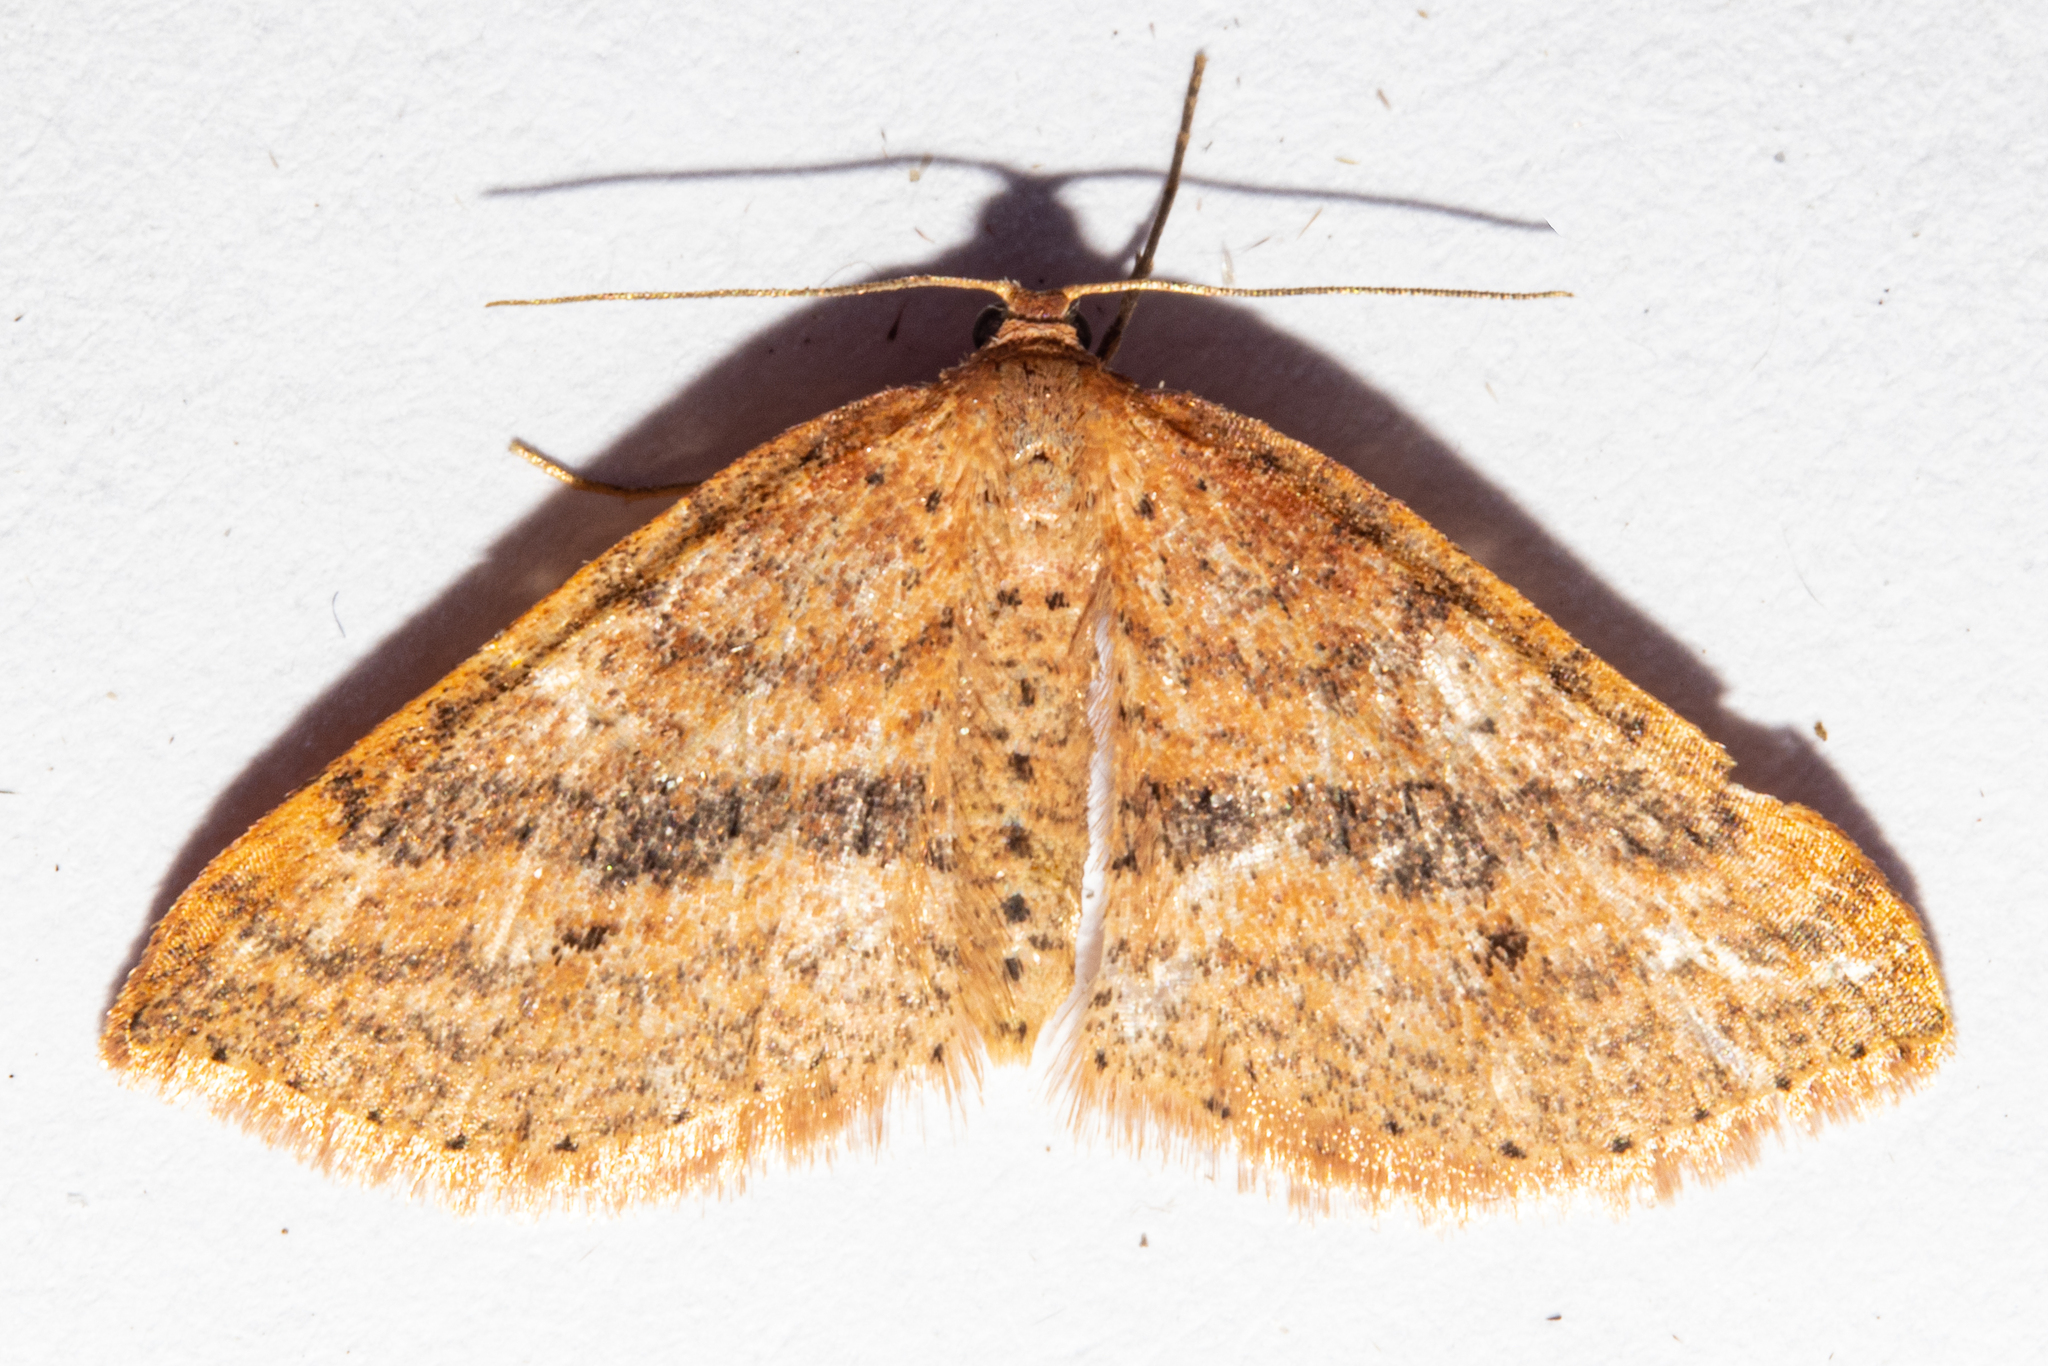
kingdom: Animalia
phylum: Arthropoda
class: Insecta
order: Lepidoptera
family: Geometridae
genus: Epicyme
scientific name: Epicyme rubropunctaria
